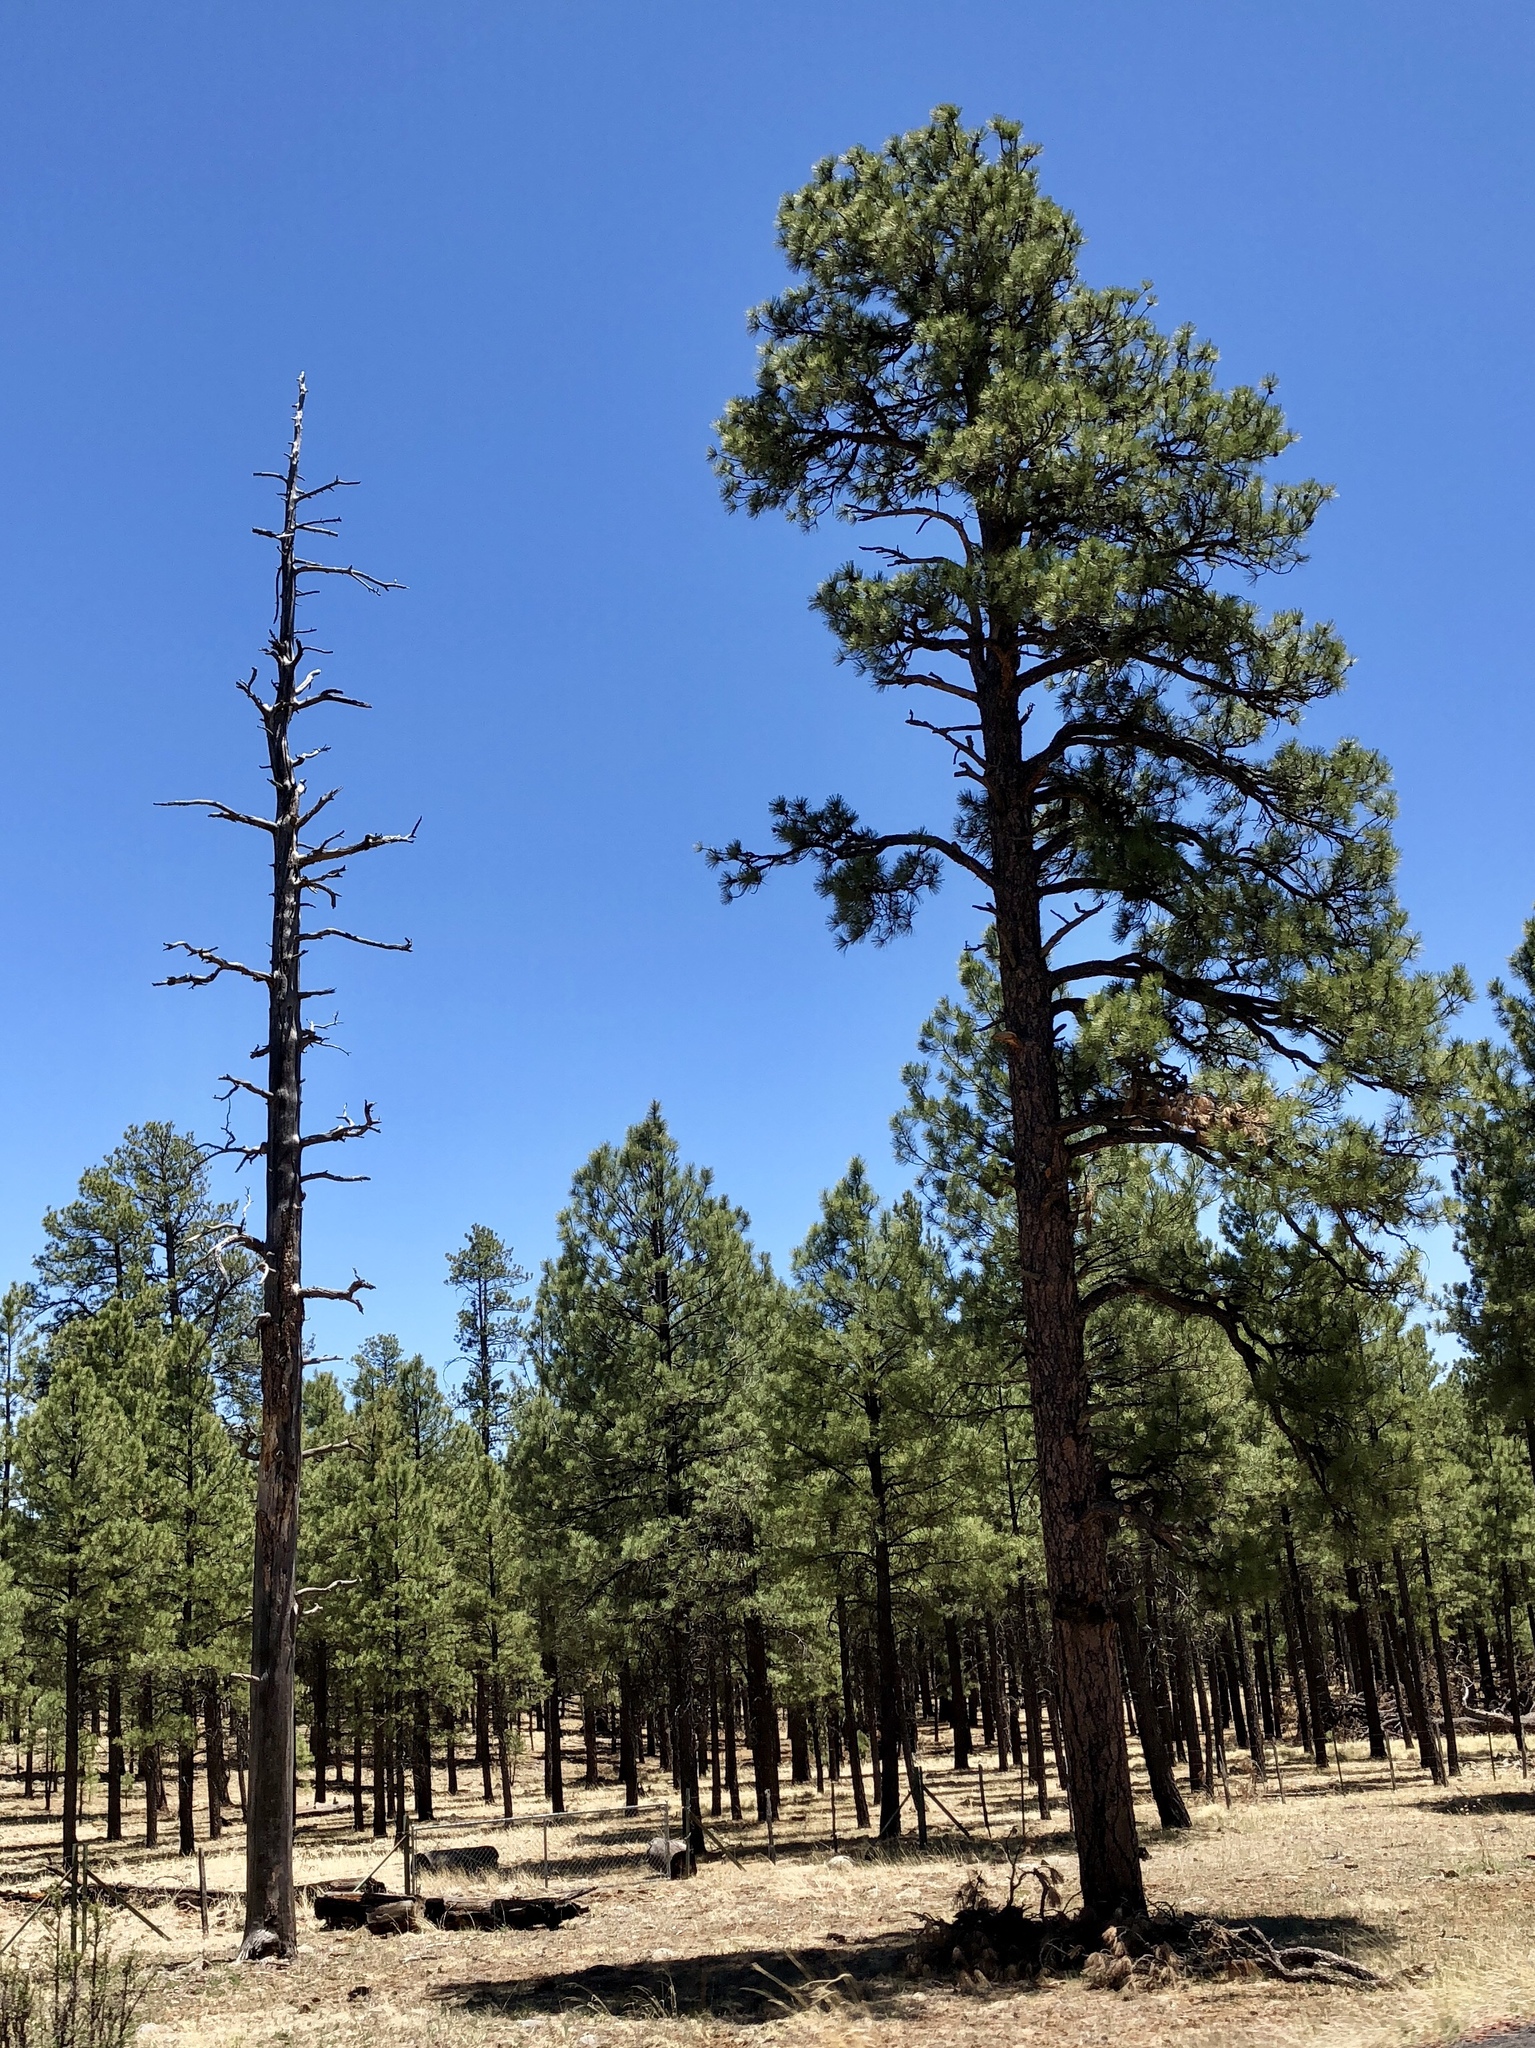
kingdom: Plantae
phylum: Tracheophyta
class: Pinopsida
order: Pinales
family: Pinaceae
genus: Pinus
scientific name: Pinus ponderosa
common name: Western yellow-pine
